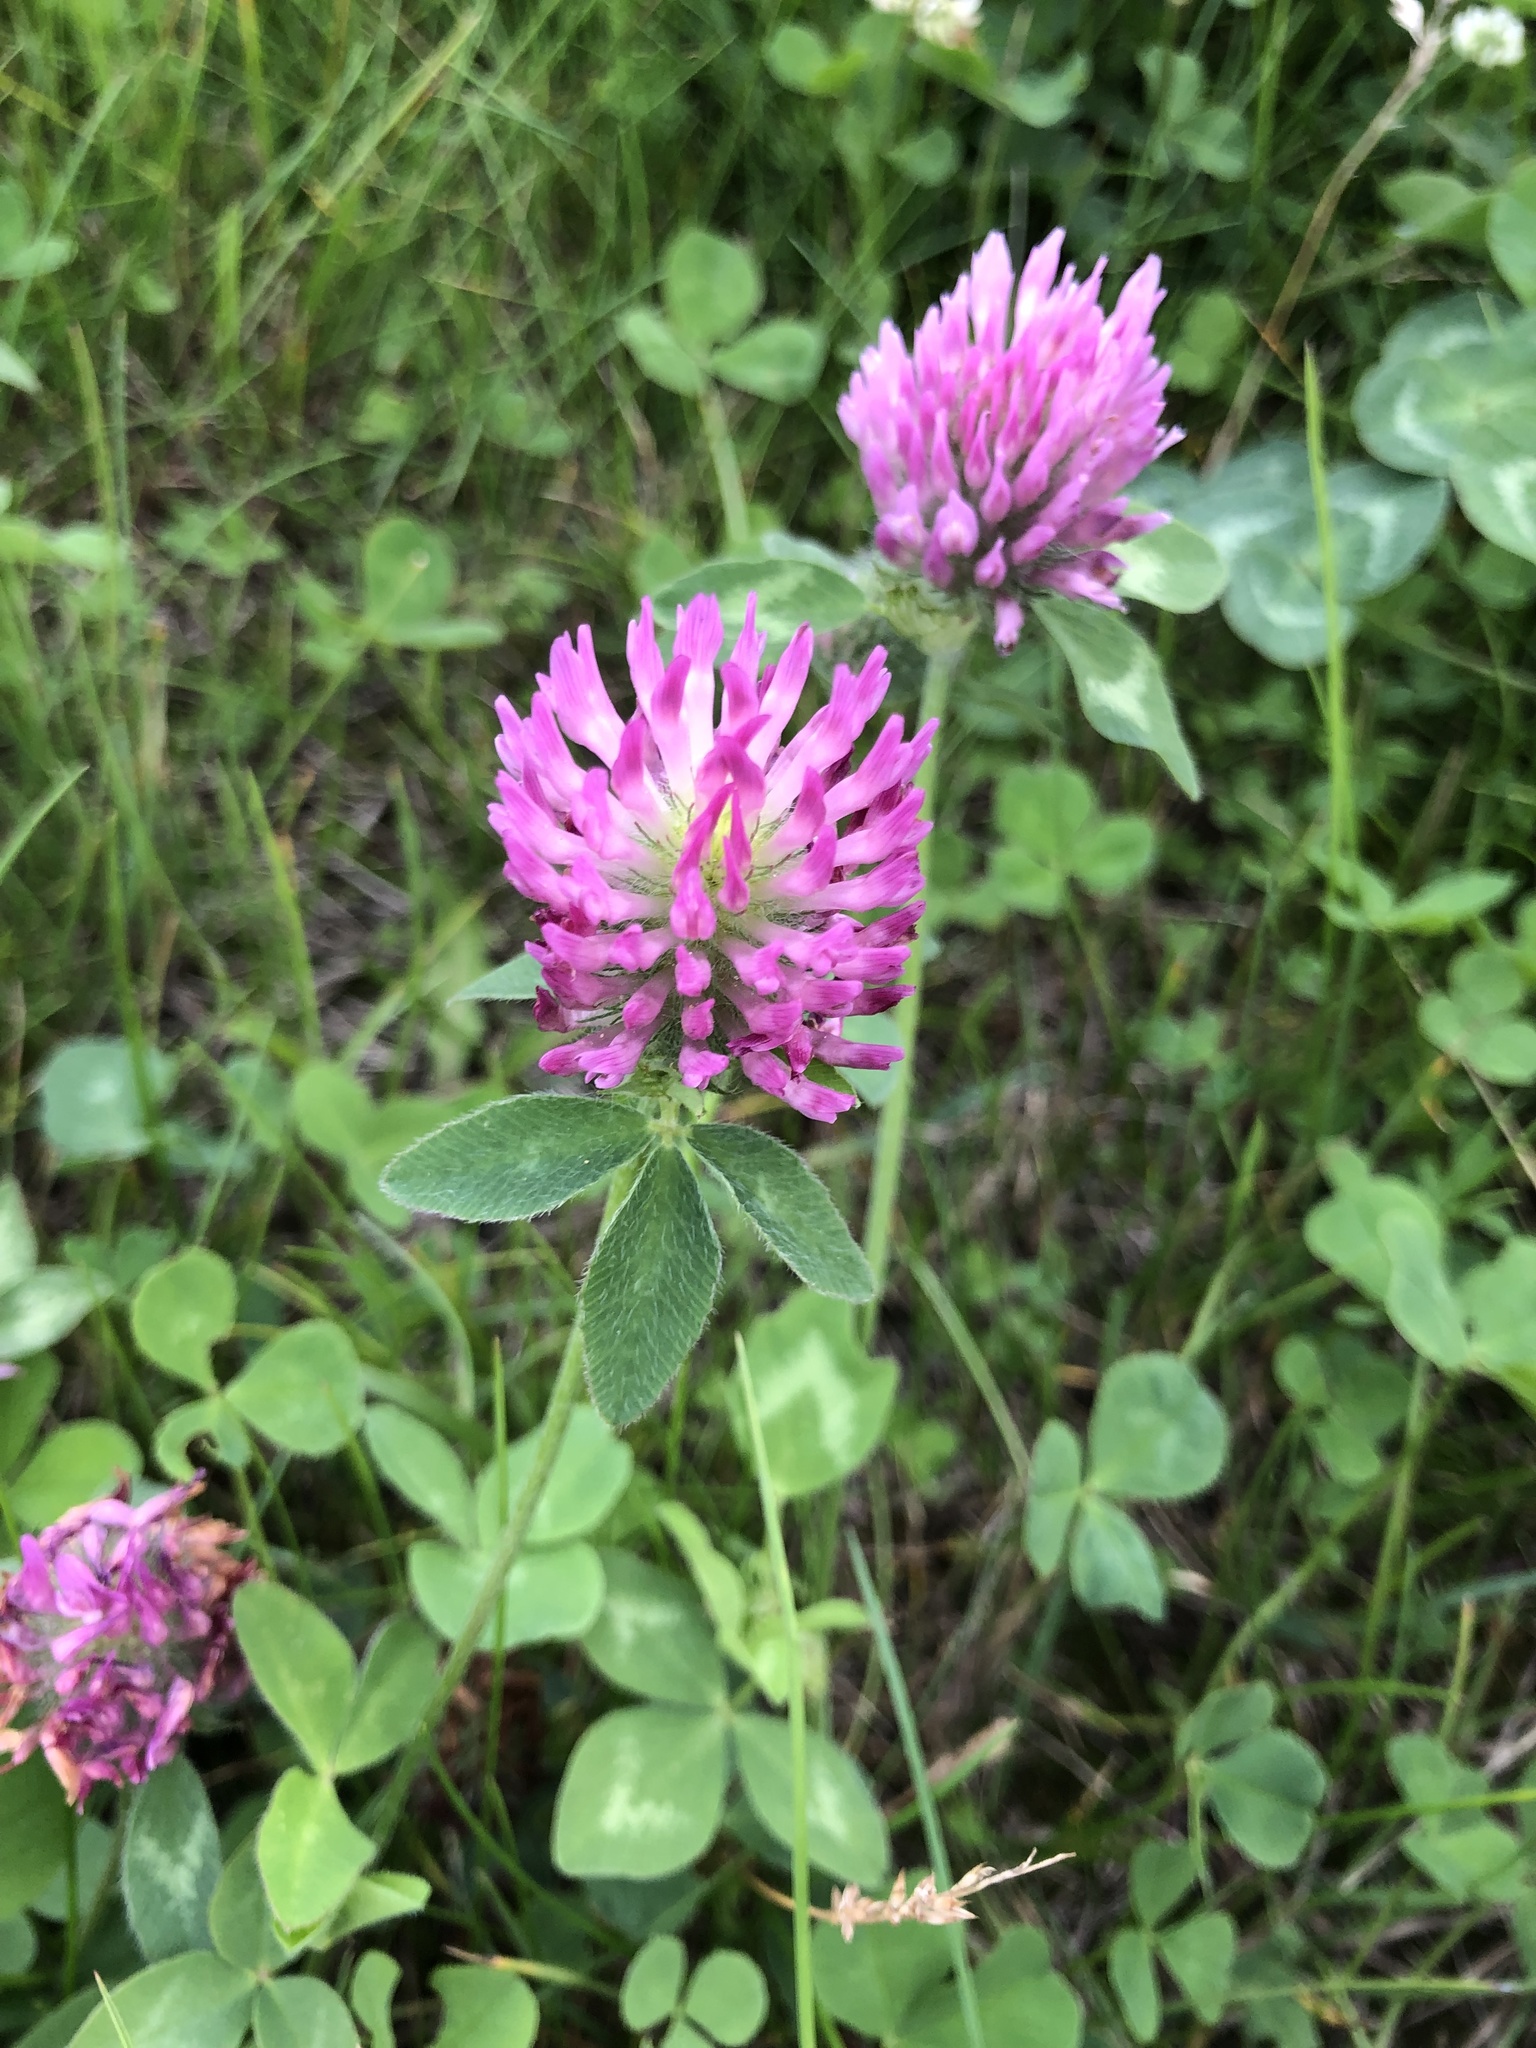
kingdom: Plantae
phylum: Tracheophyta
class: Magnoliopsida
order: Fabales
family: Fabaceae
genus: Trifolium
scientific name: Trifolium pratense
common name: Red clover
